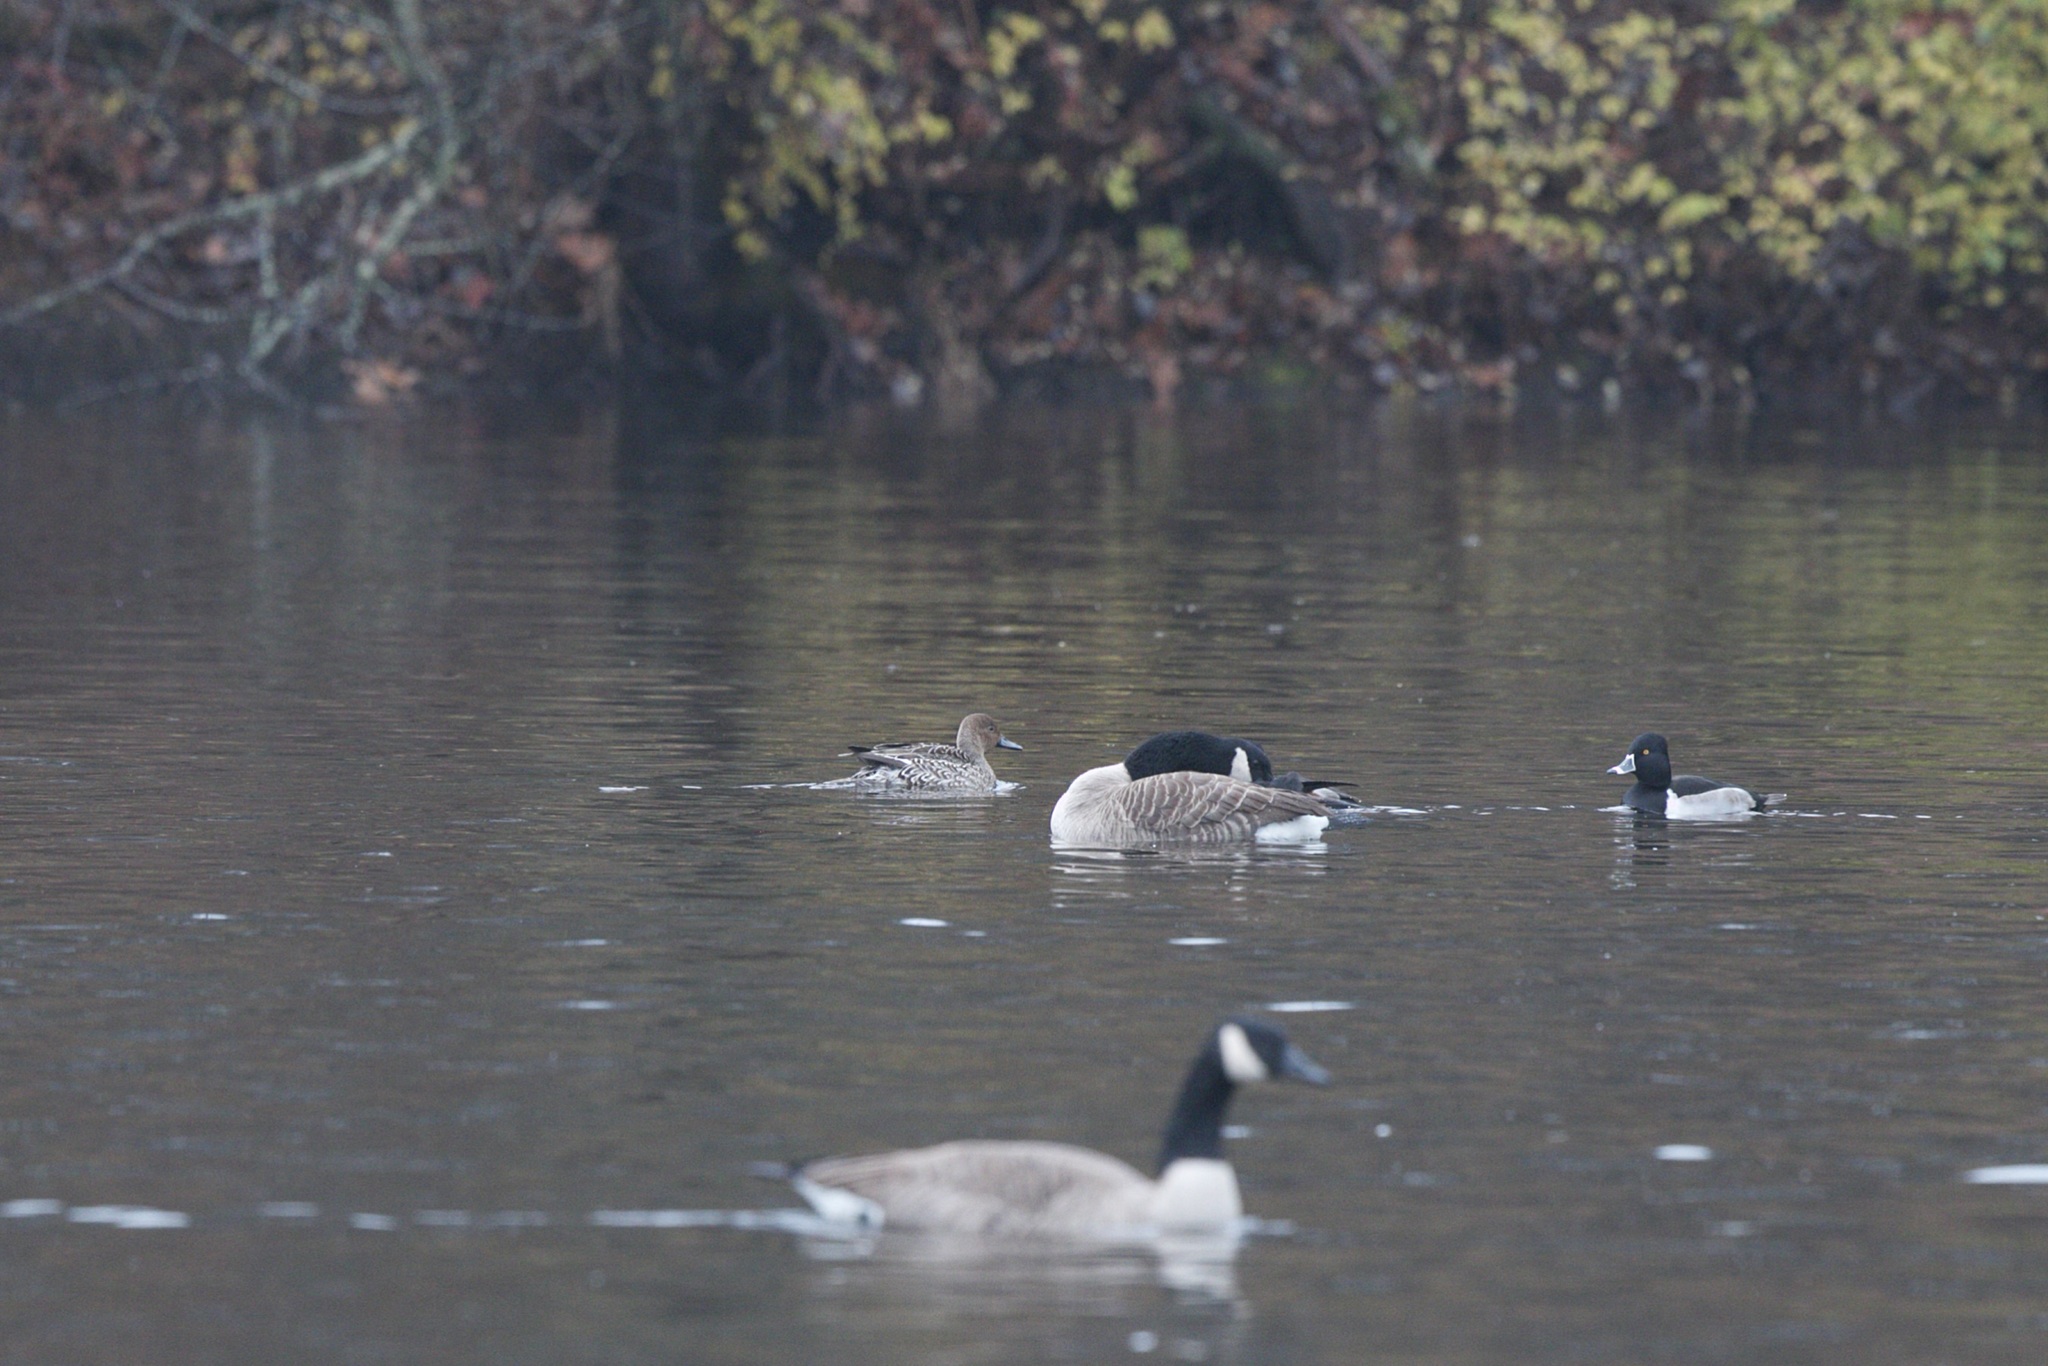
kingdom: Animalia
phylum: Chordata
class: Aves
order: Anseriformes
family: Anatidae
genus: Aythya
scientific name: Aythya collaris
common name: Ring-necked duck
